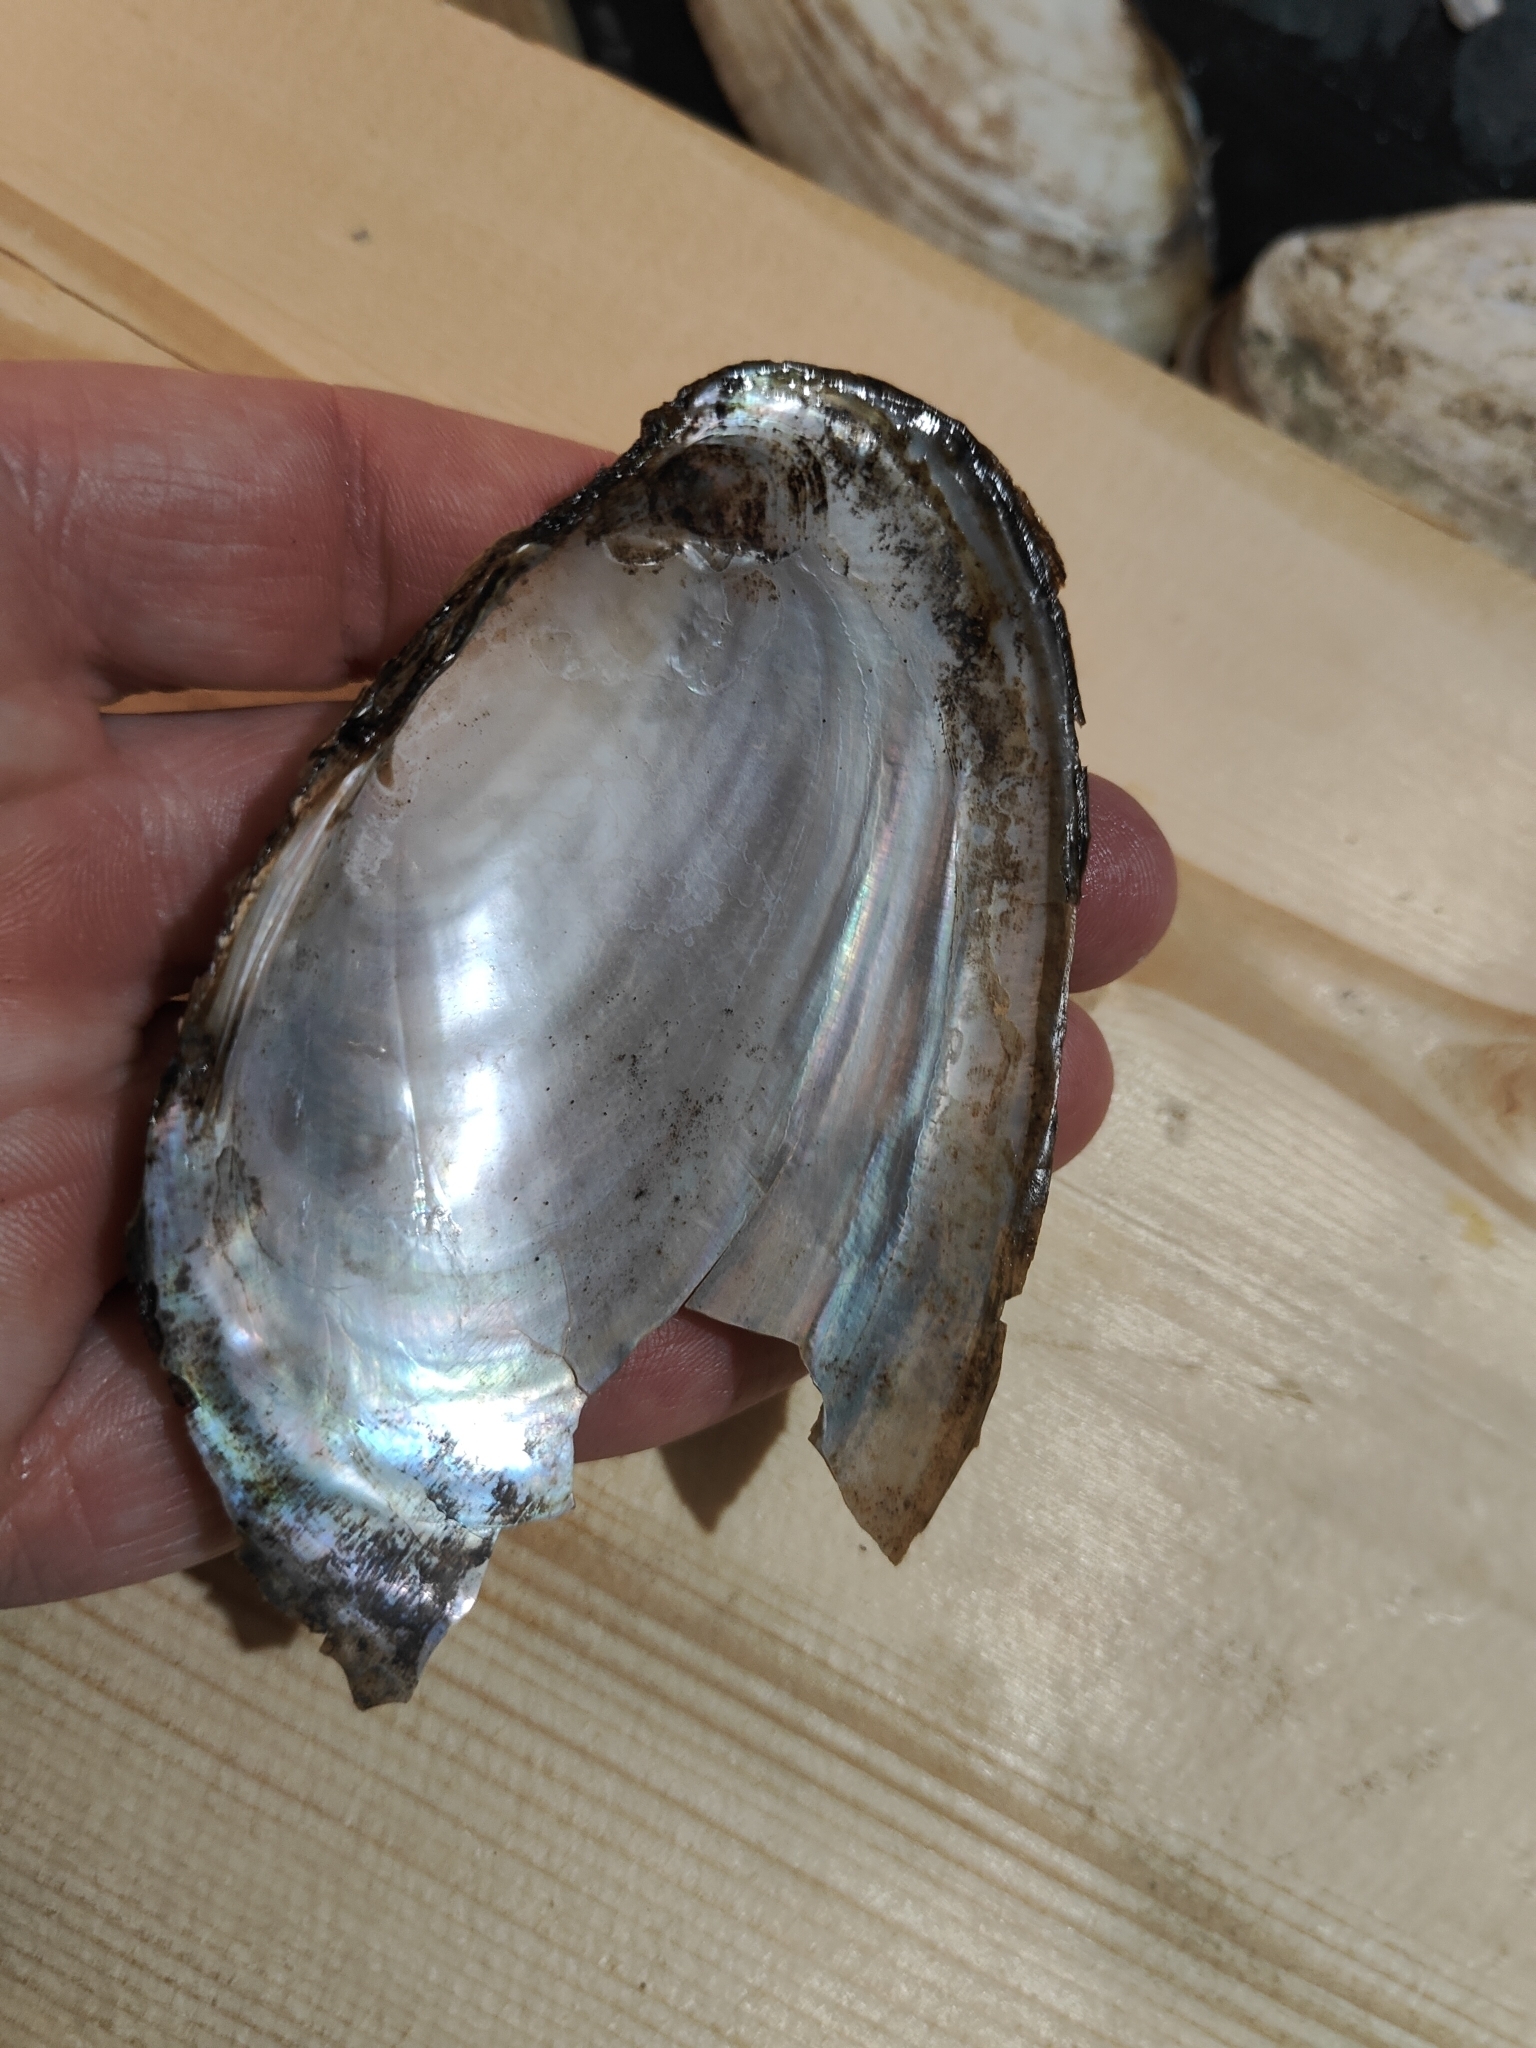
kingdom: Animalia
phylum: Mollusca
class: Bivalvia
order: Unionida
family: Unionidae
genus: Potamilus
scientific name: Potamilus fragilis
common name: Fragile papershell
